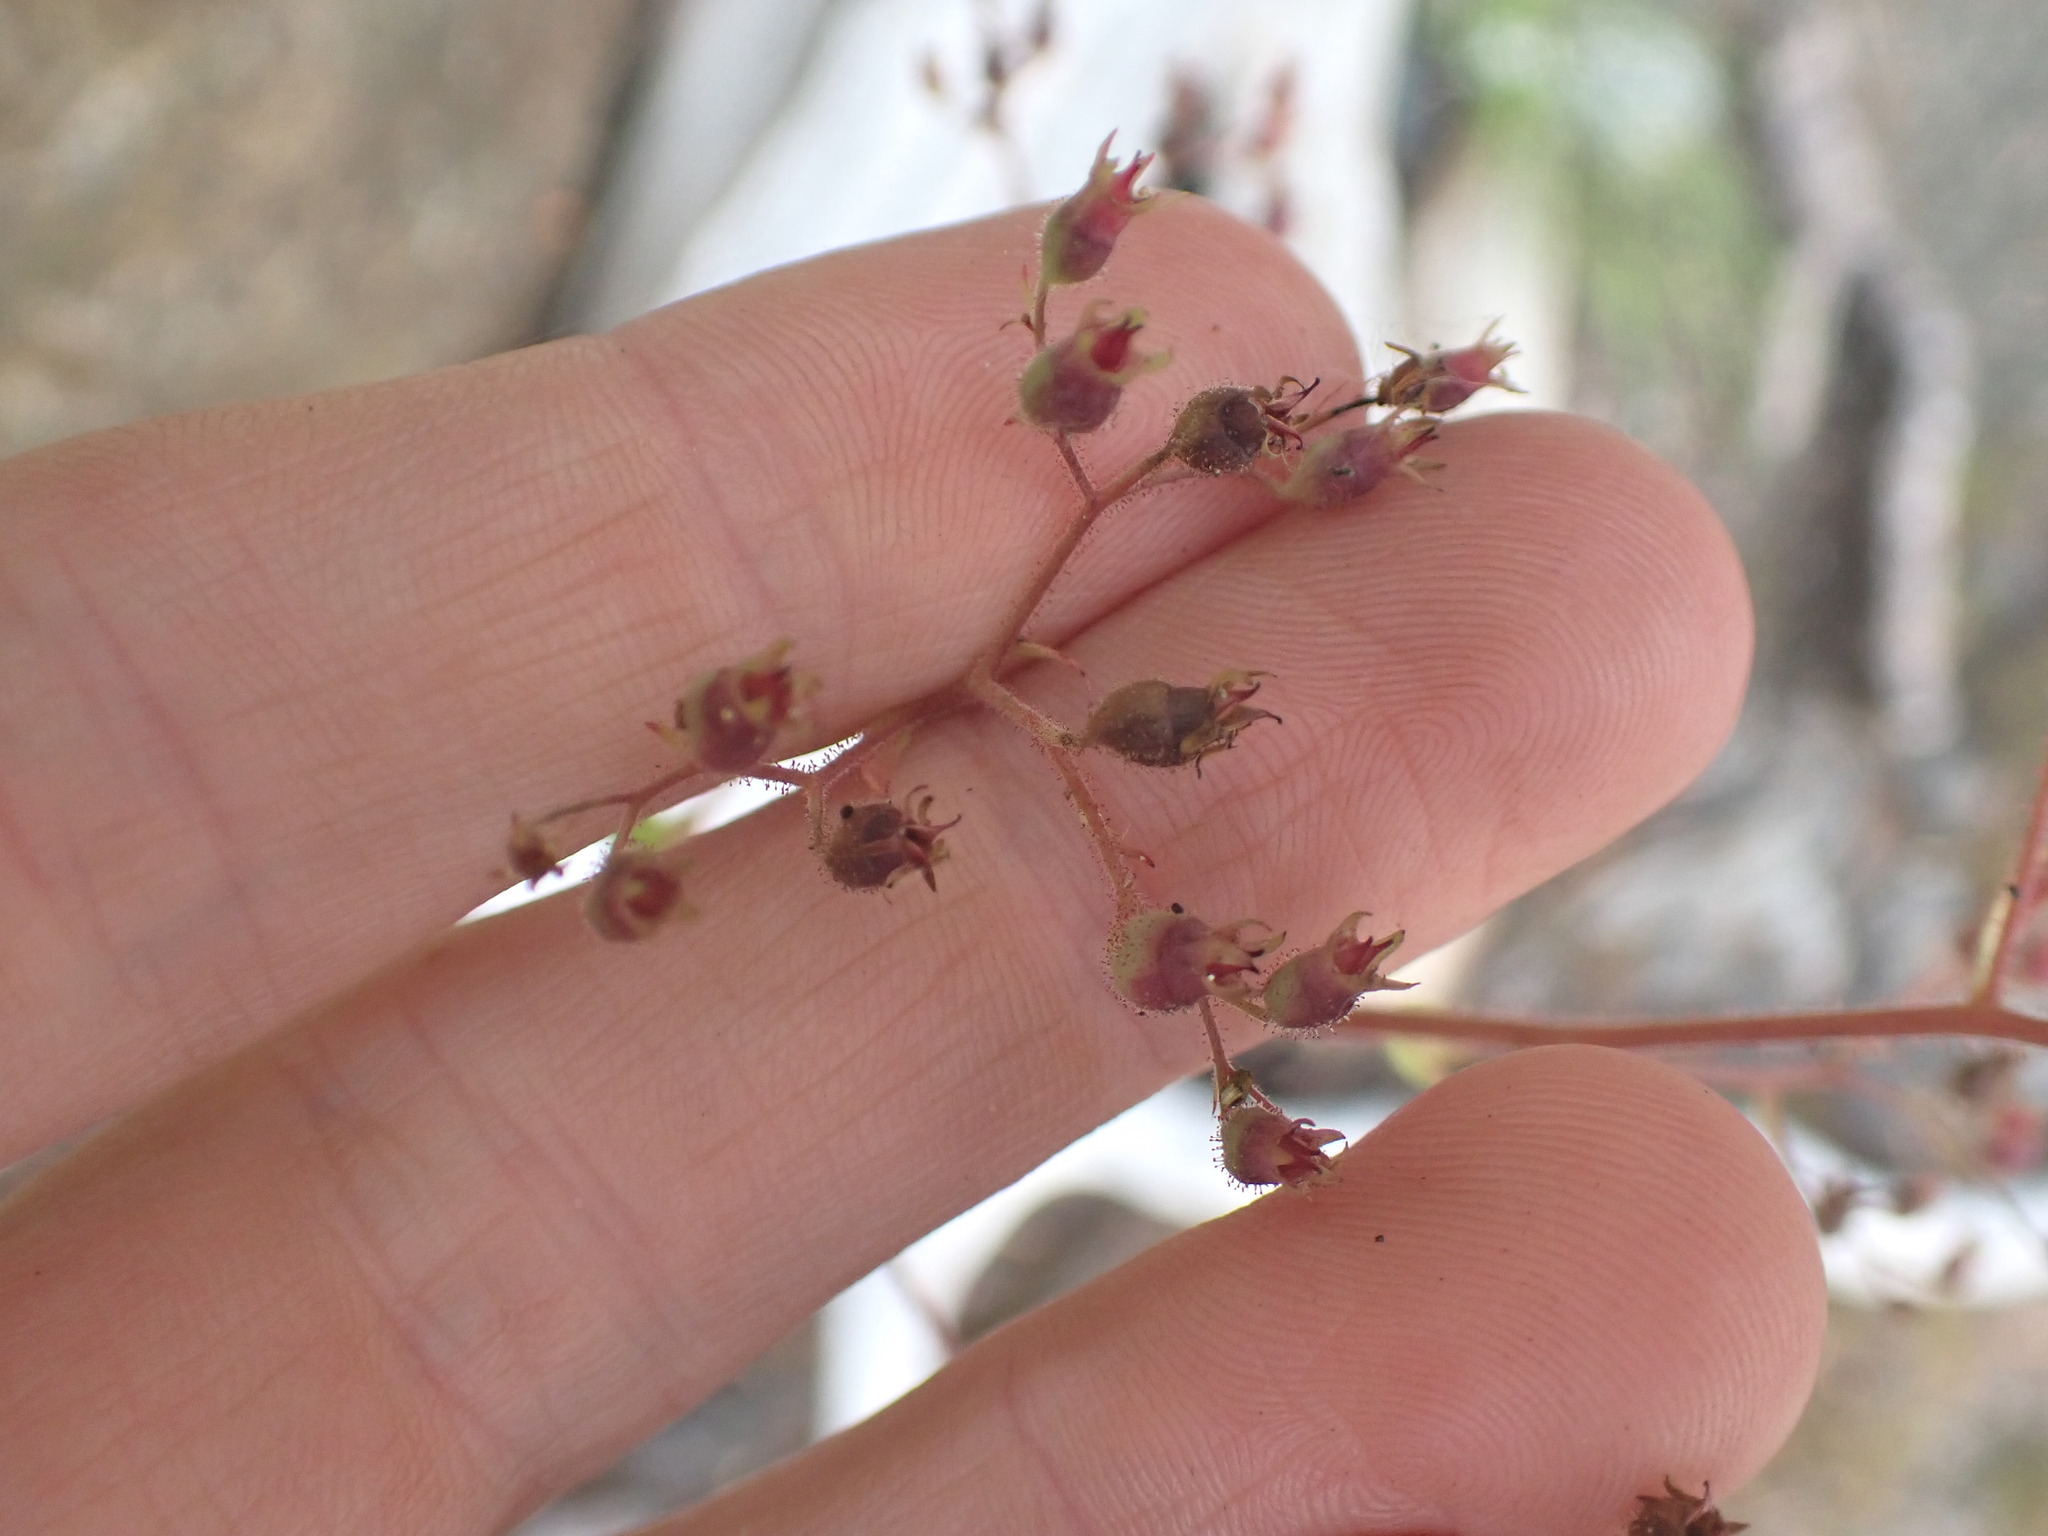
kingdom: Plantae
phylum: Tracheophyta
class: Magnoliopsida
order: Saxifragales
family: Saxifragaceae
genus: Boykinia
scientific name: Boykinia occidentalis
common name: Coast boykinia
